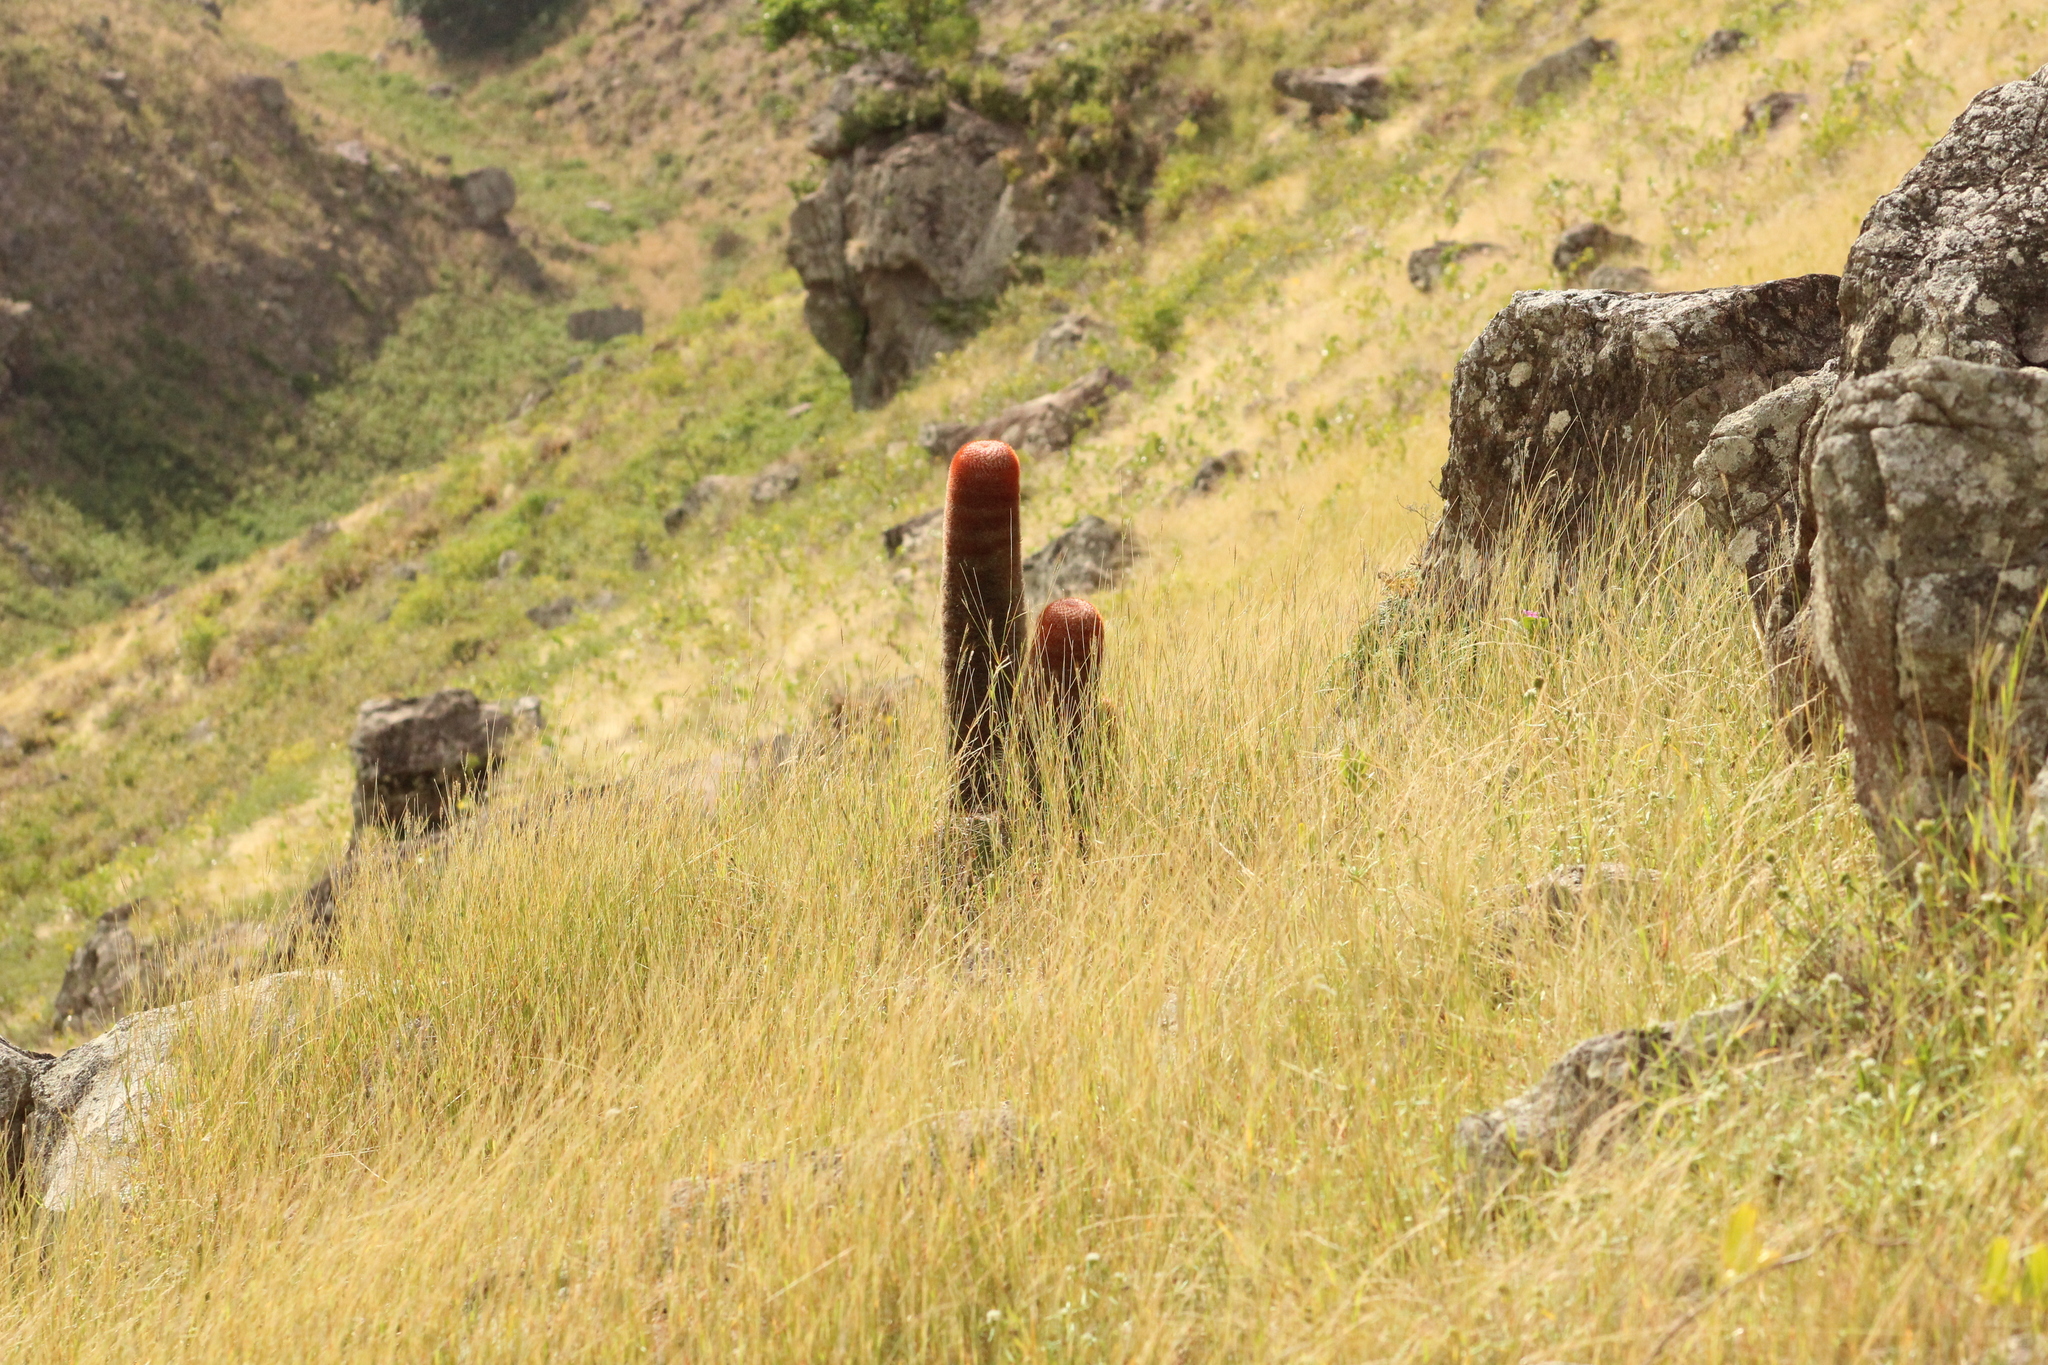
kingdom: Plantae
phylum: Tracheophyta
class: Magnoliopsida
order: Caryophyllales
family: Cactaceae
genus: Melocactus
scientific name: Melocactus intortus
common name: Barrel cactus
